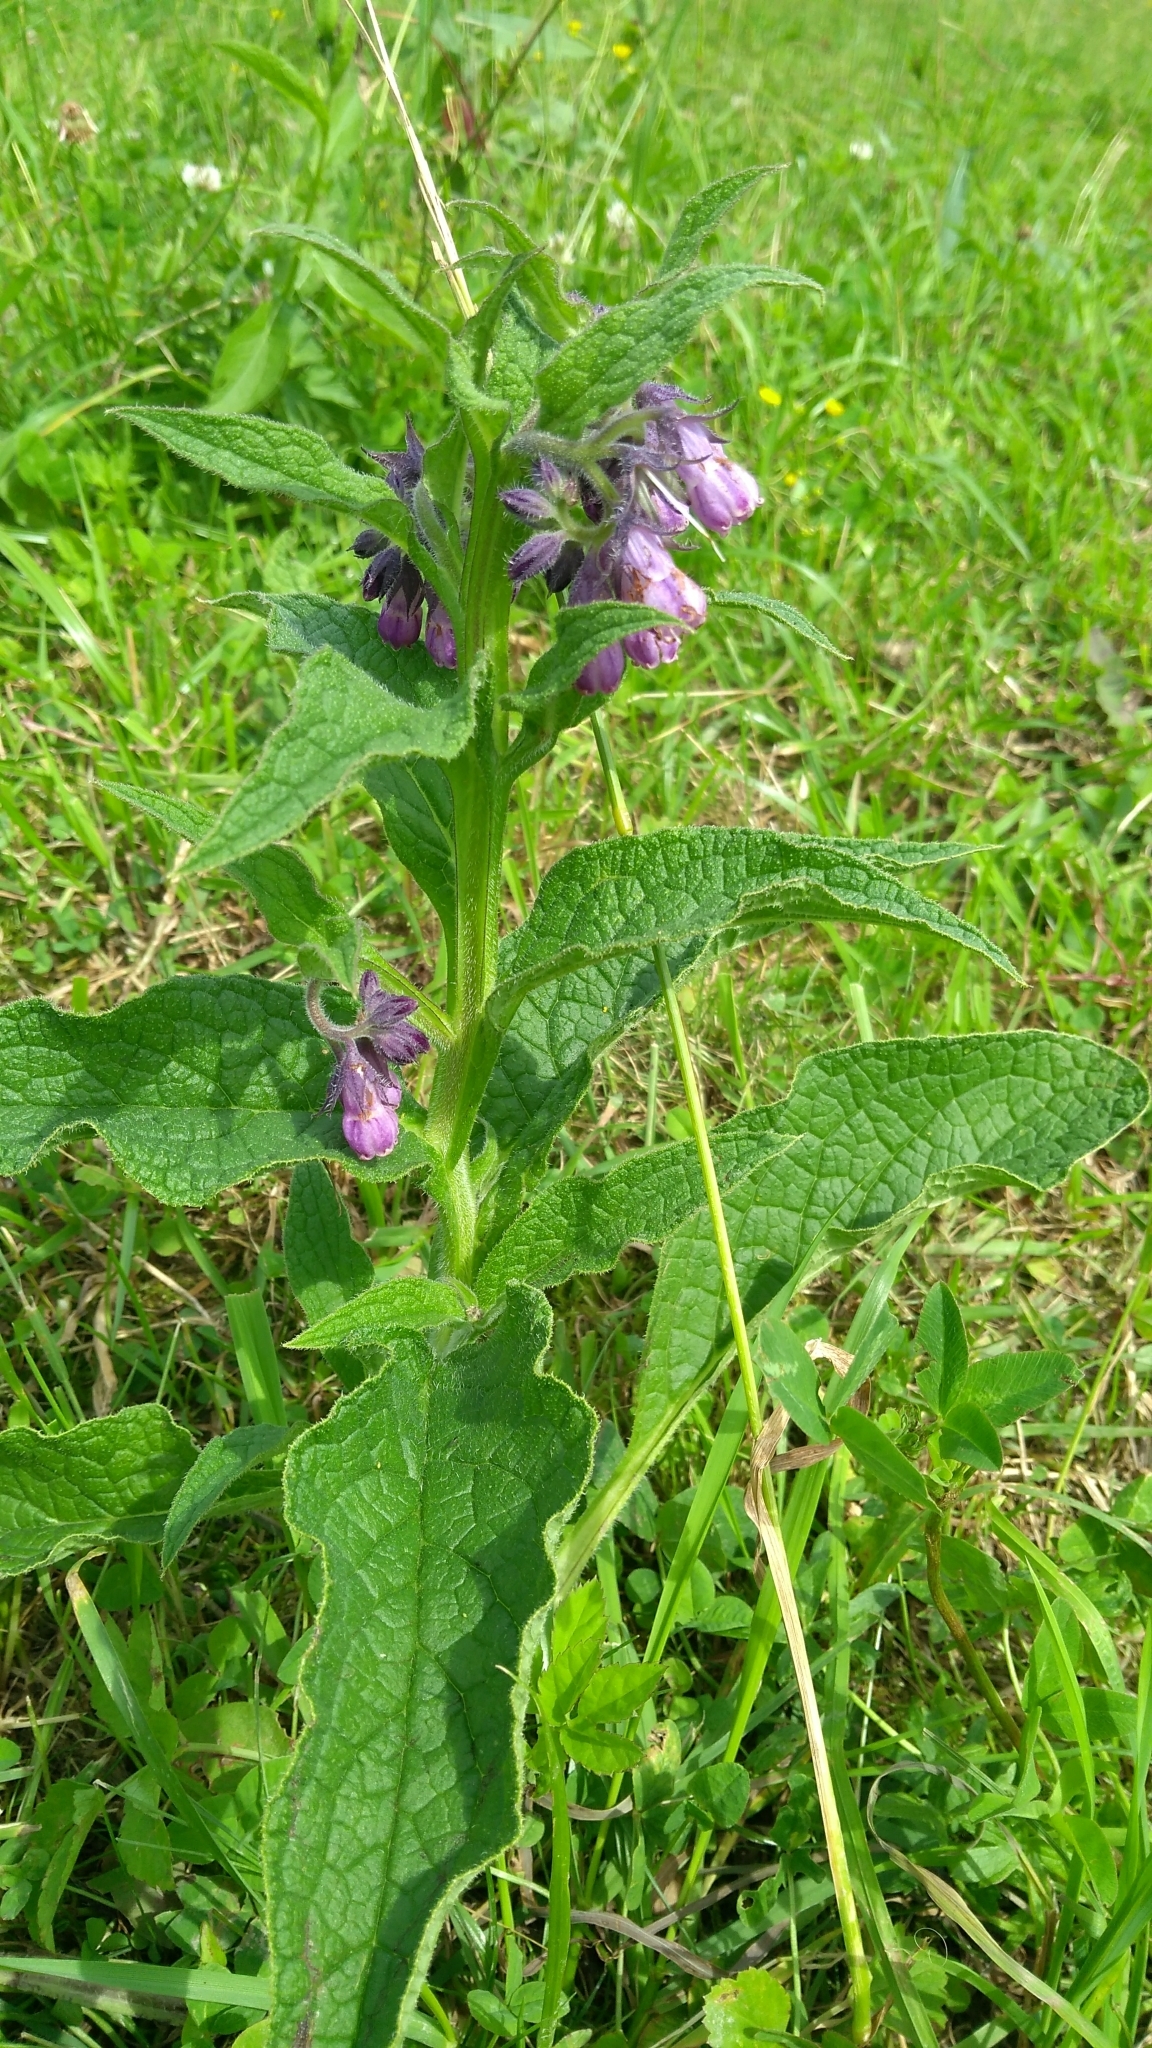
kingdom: Plantae
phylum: Tracheophyta
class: Magnoliopsida
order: Boraginales
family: Boraginaceae
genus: Symphytum
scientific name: Symphytum officinale
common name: Common comfrey
